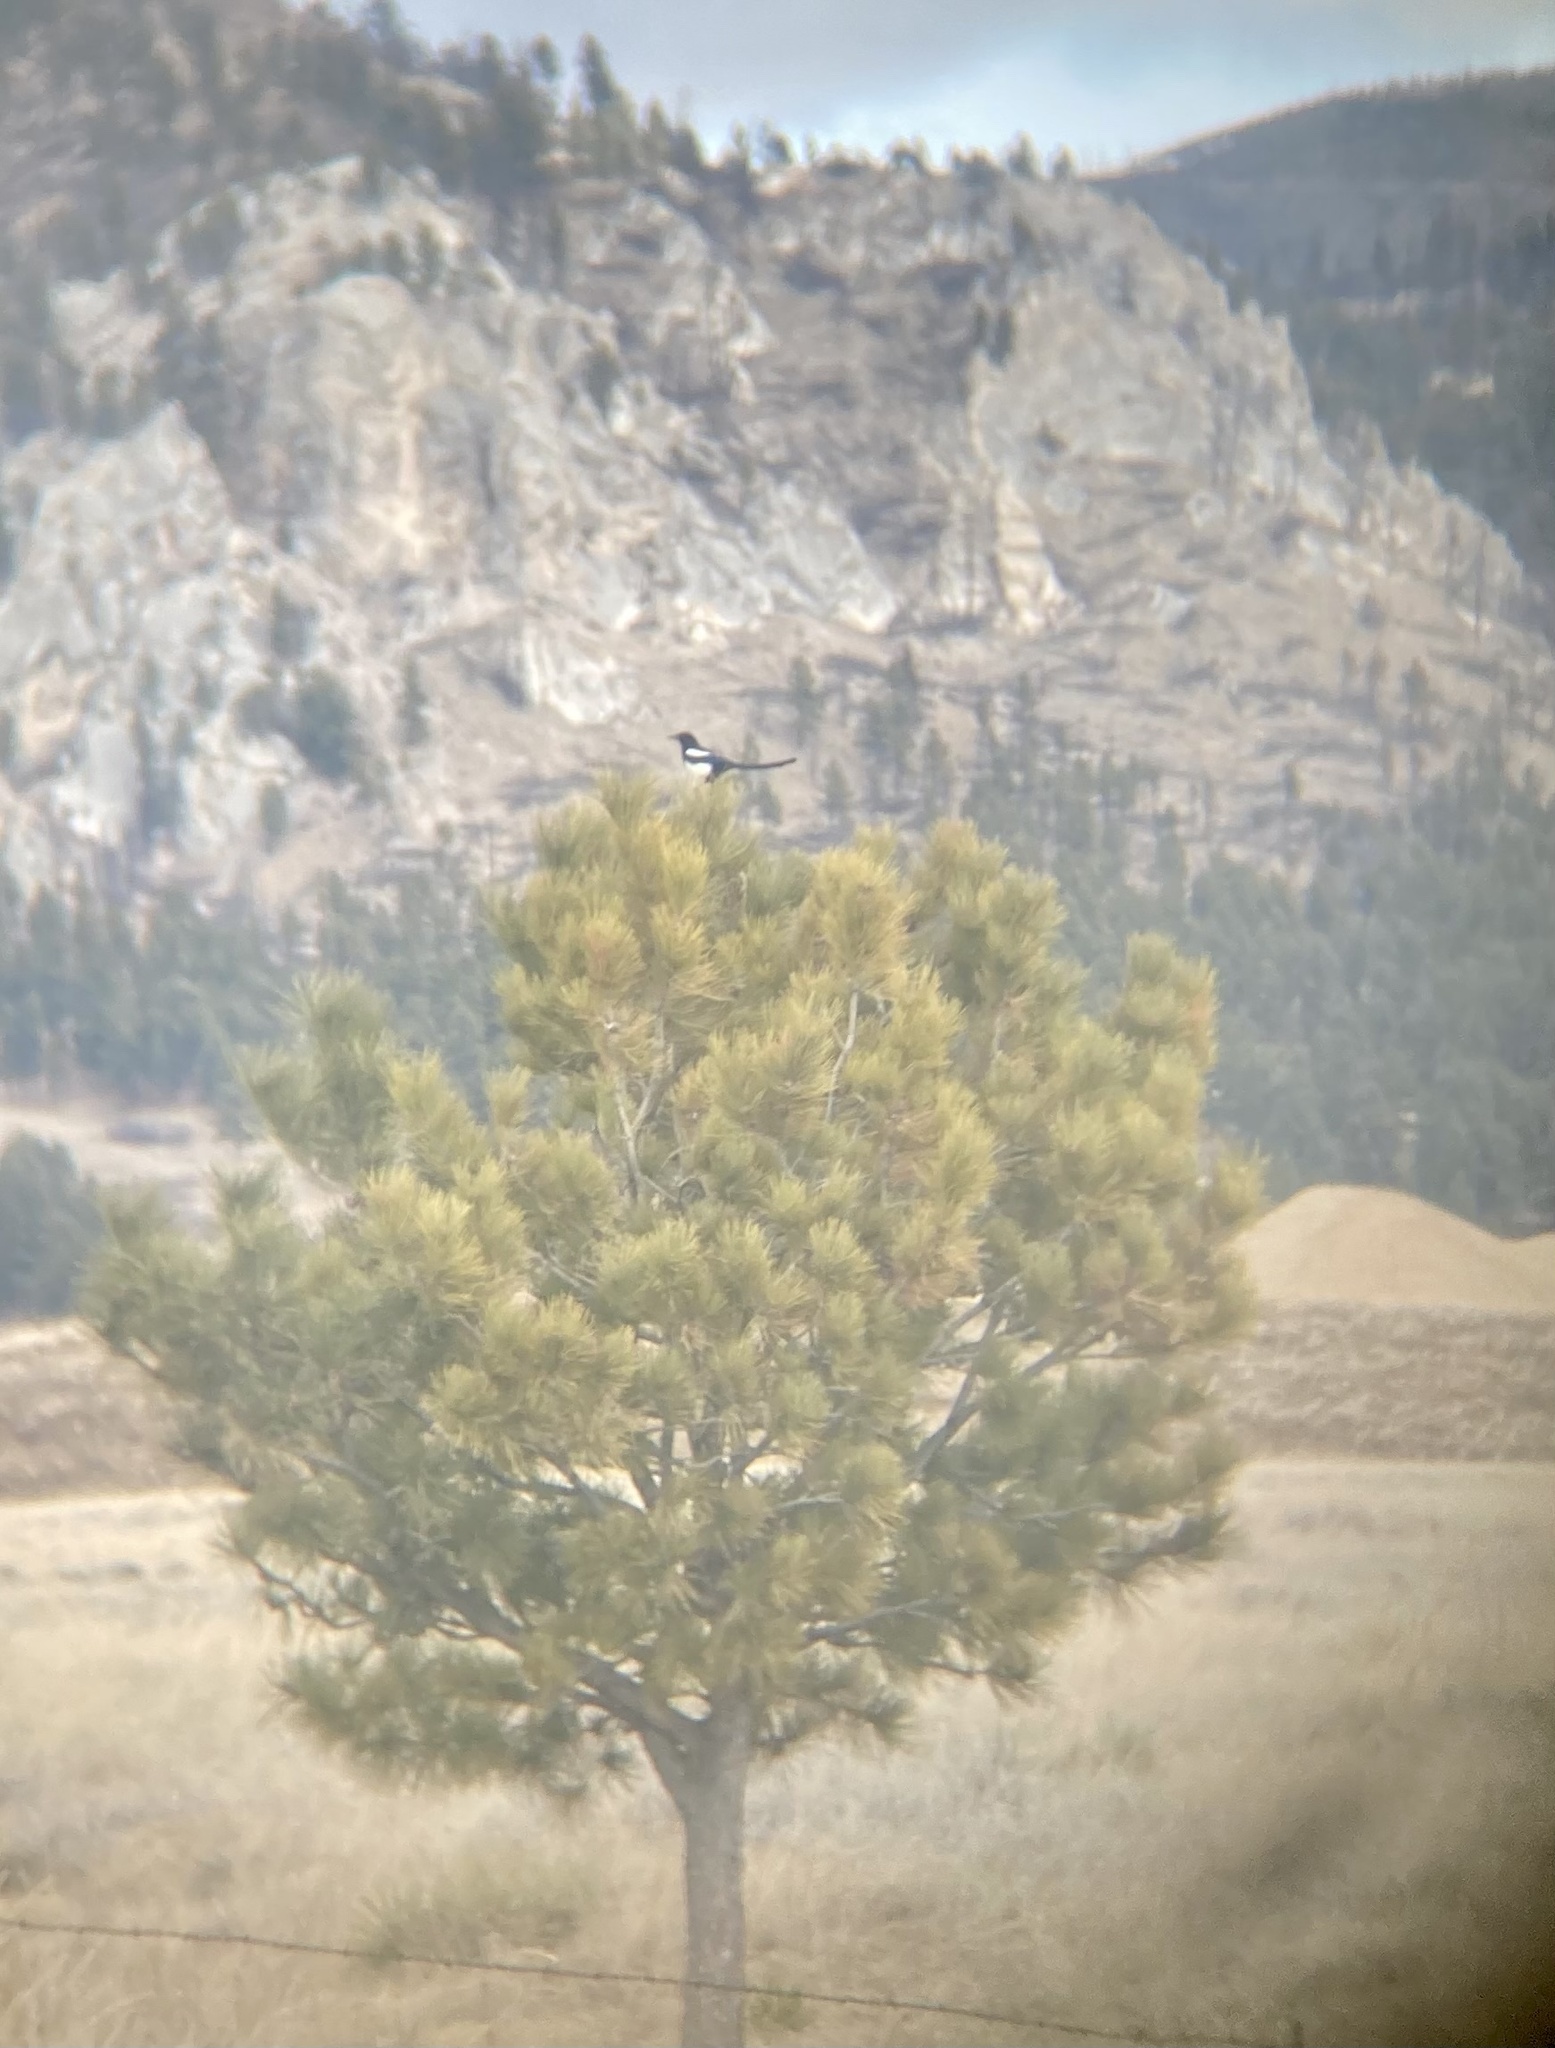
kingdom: Animalia
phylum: Chordata
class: Aves
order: Passeriformes
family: Corvidae
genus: Pica
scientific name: Pica hudsonia
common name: Black-billed magpie
